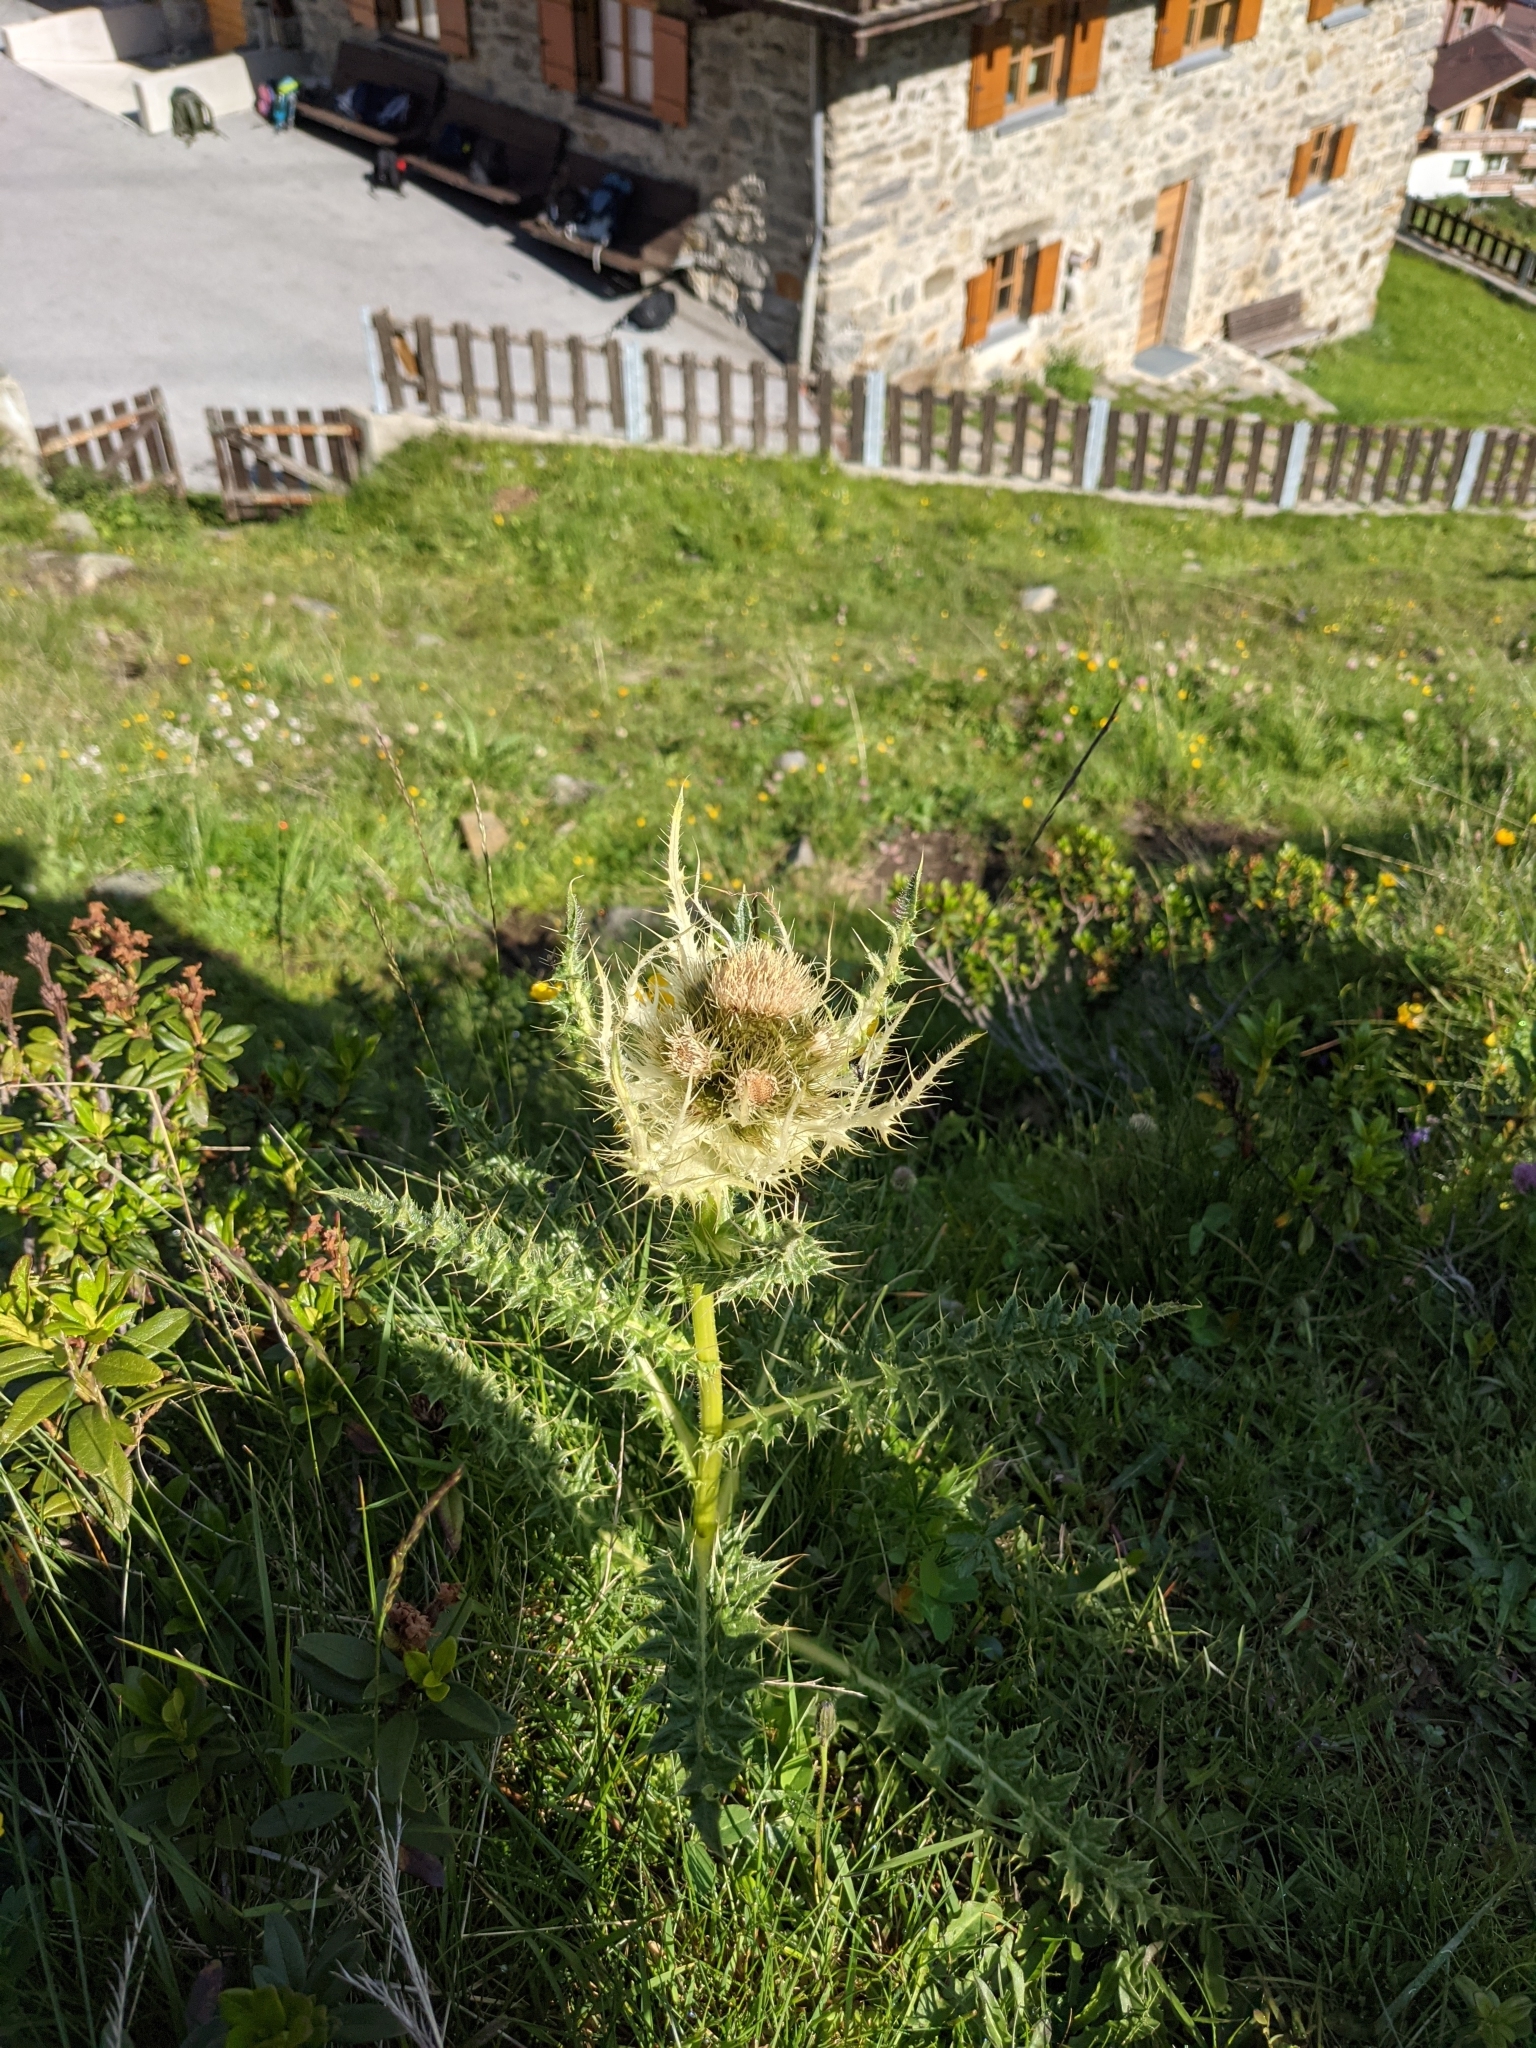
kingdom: Plantae
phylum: Tracheophyta
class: Magnoliopsida
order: Asterales
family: Asteraceae
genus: Cirsium
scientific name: Cirsium spinosissimum
